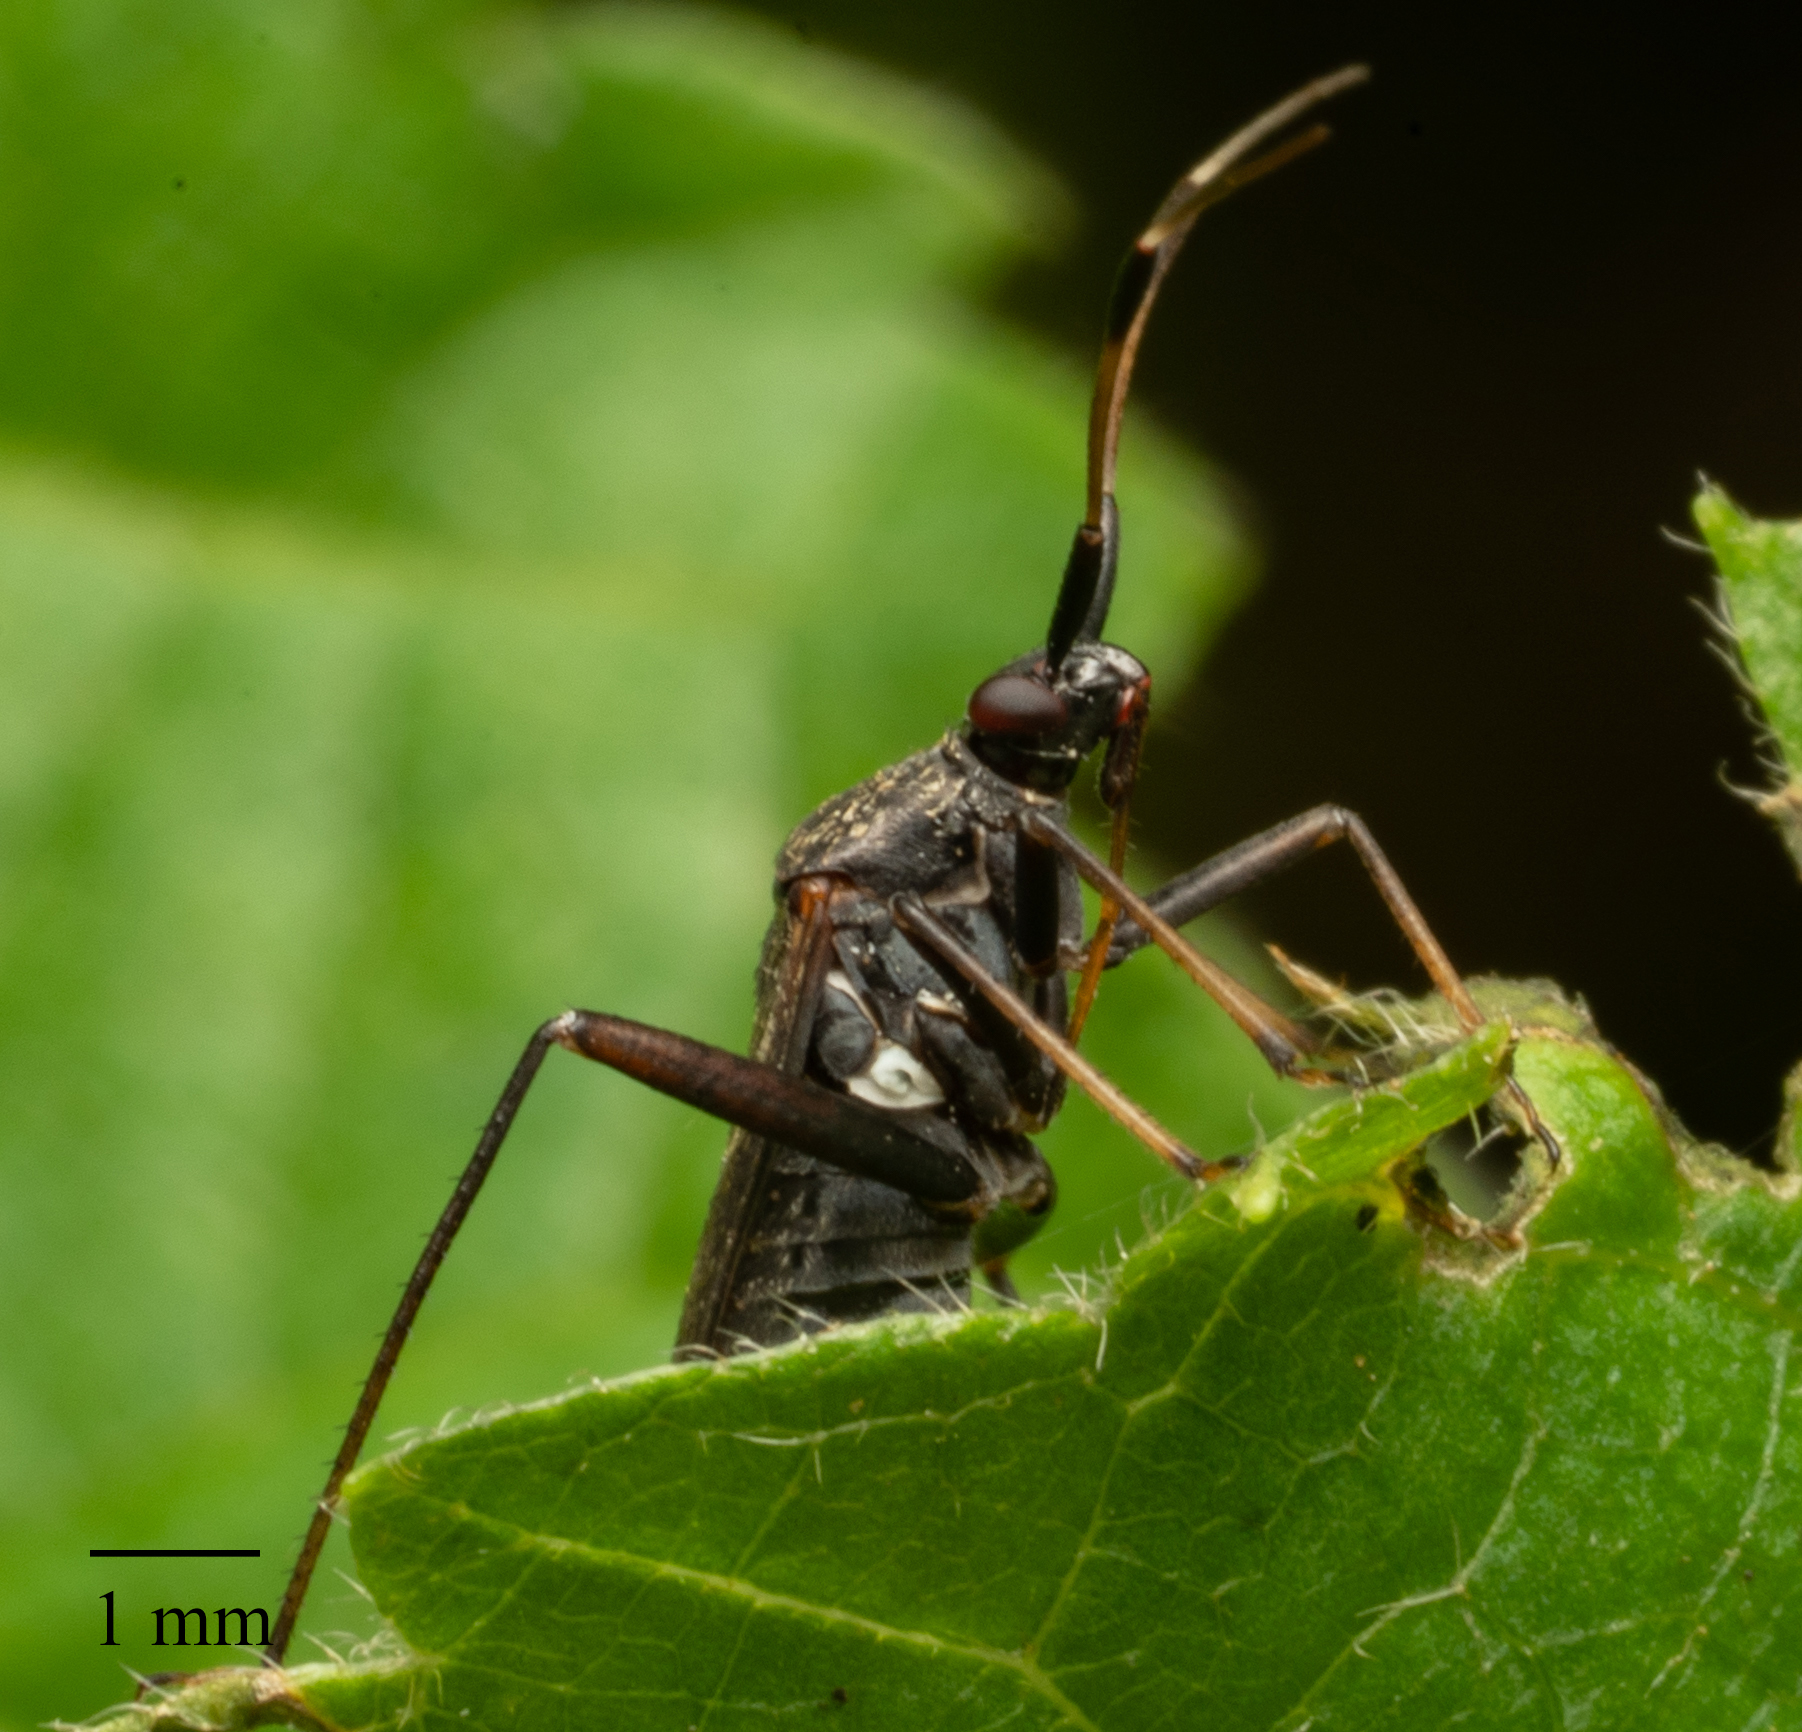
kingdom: Animalia
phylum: Arthropoda
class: Insecta
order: Hemiptera
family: Miridae
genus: Closterotomus
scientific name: Closterotomus biclavatus
